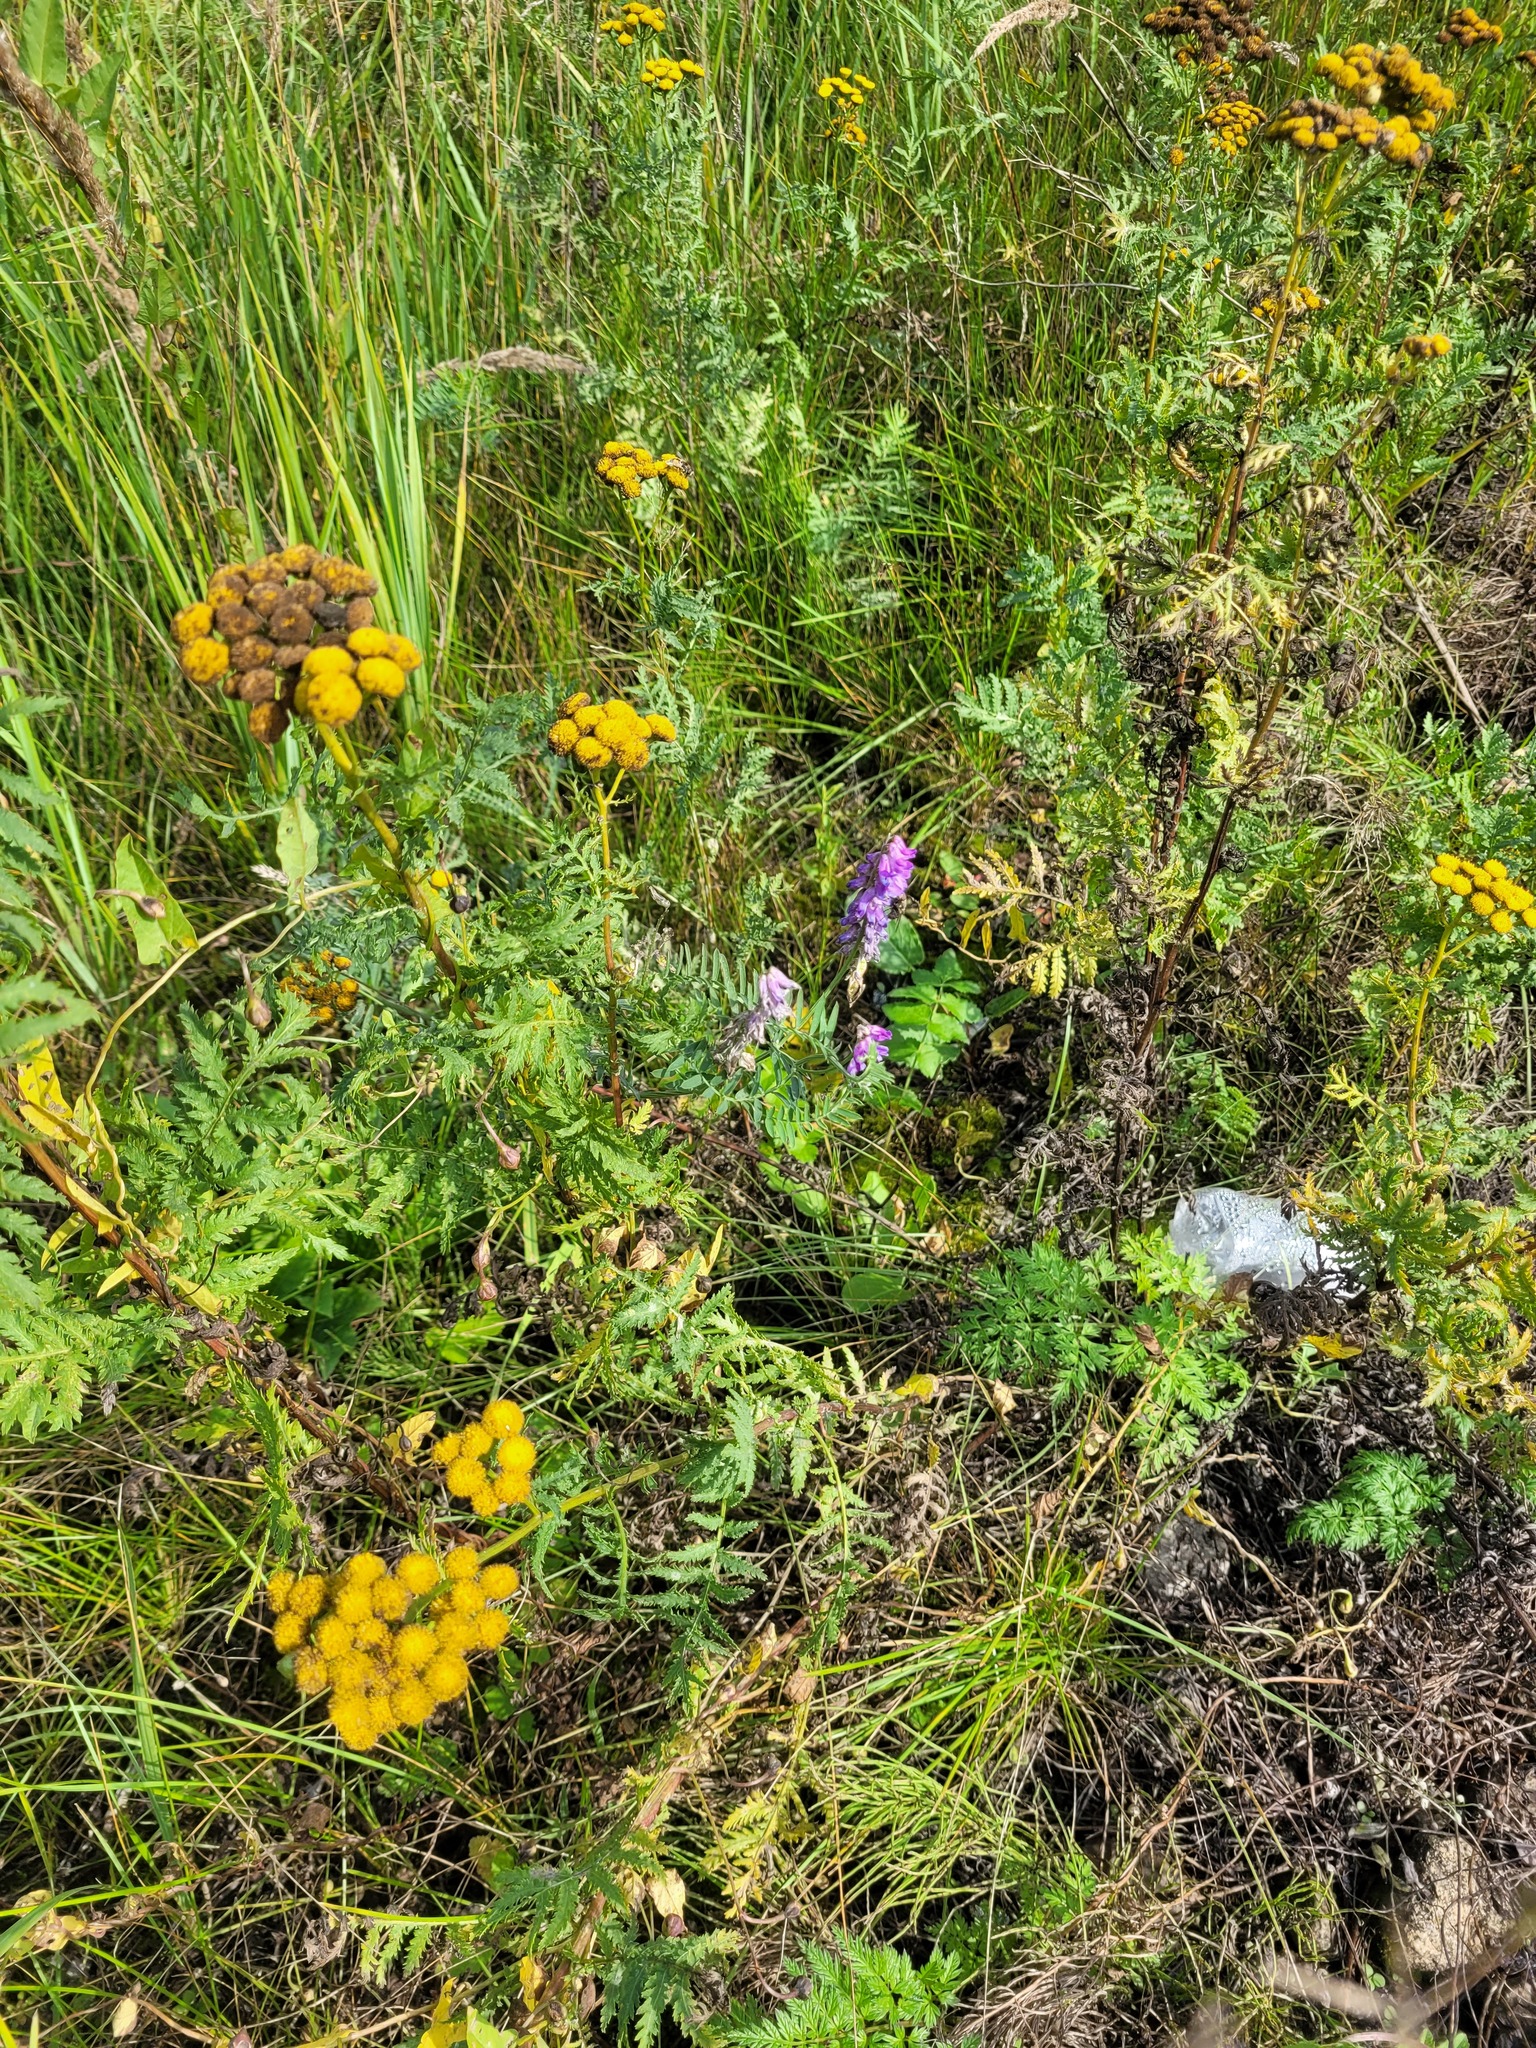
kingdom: Plantae
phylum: Tracheophyta
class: Magnoliopsida
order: Fabales
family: Fabaceae
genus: Vicia
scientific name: Vicia cracca
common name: Bird vetch
